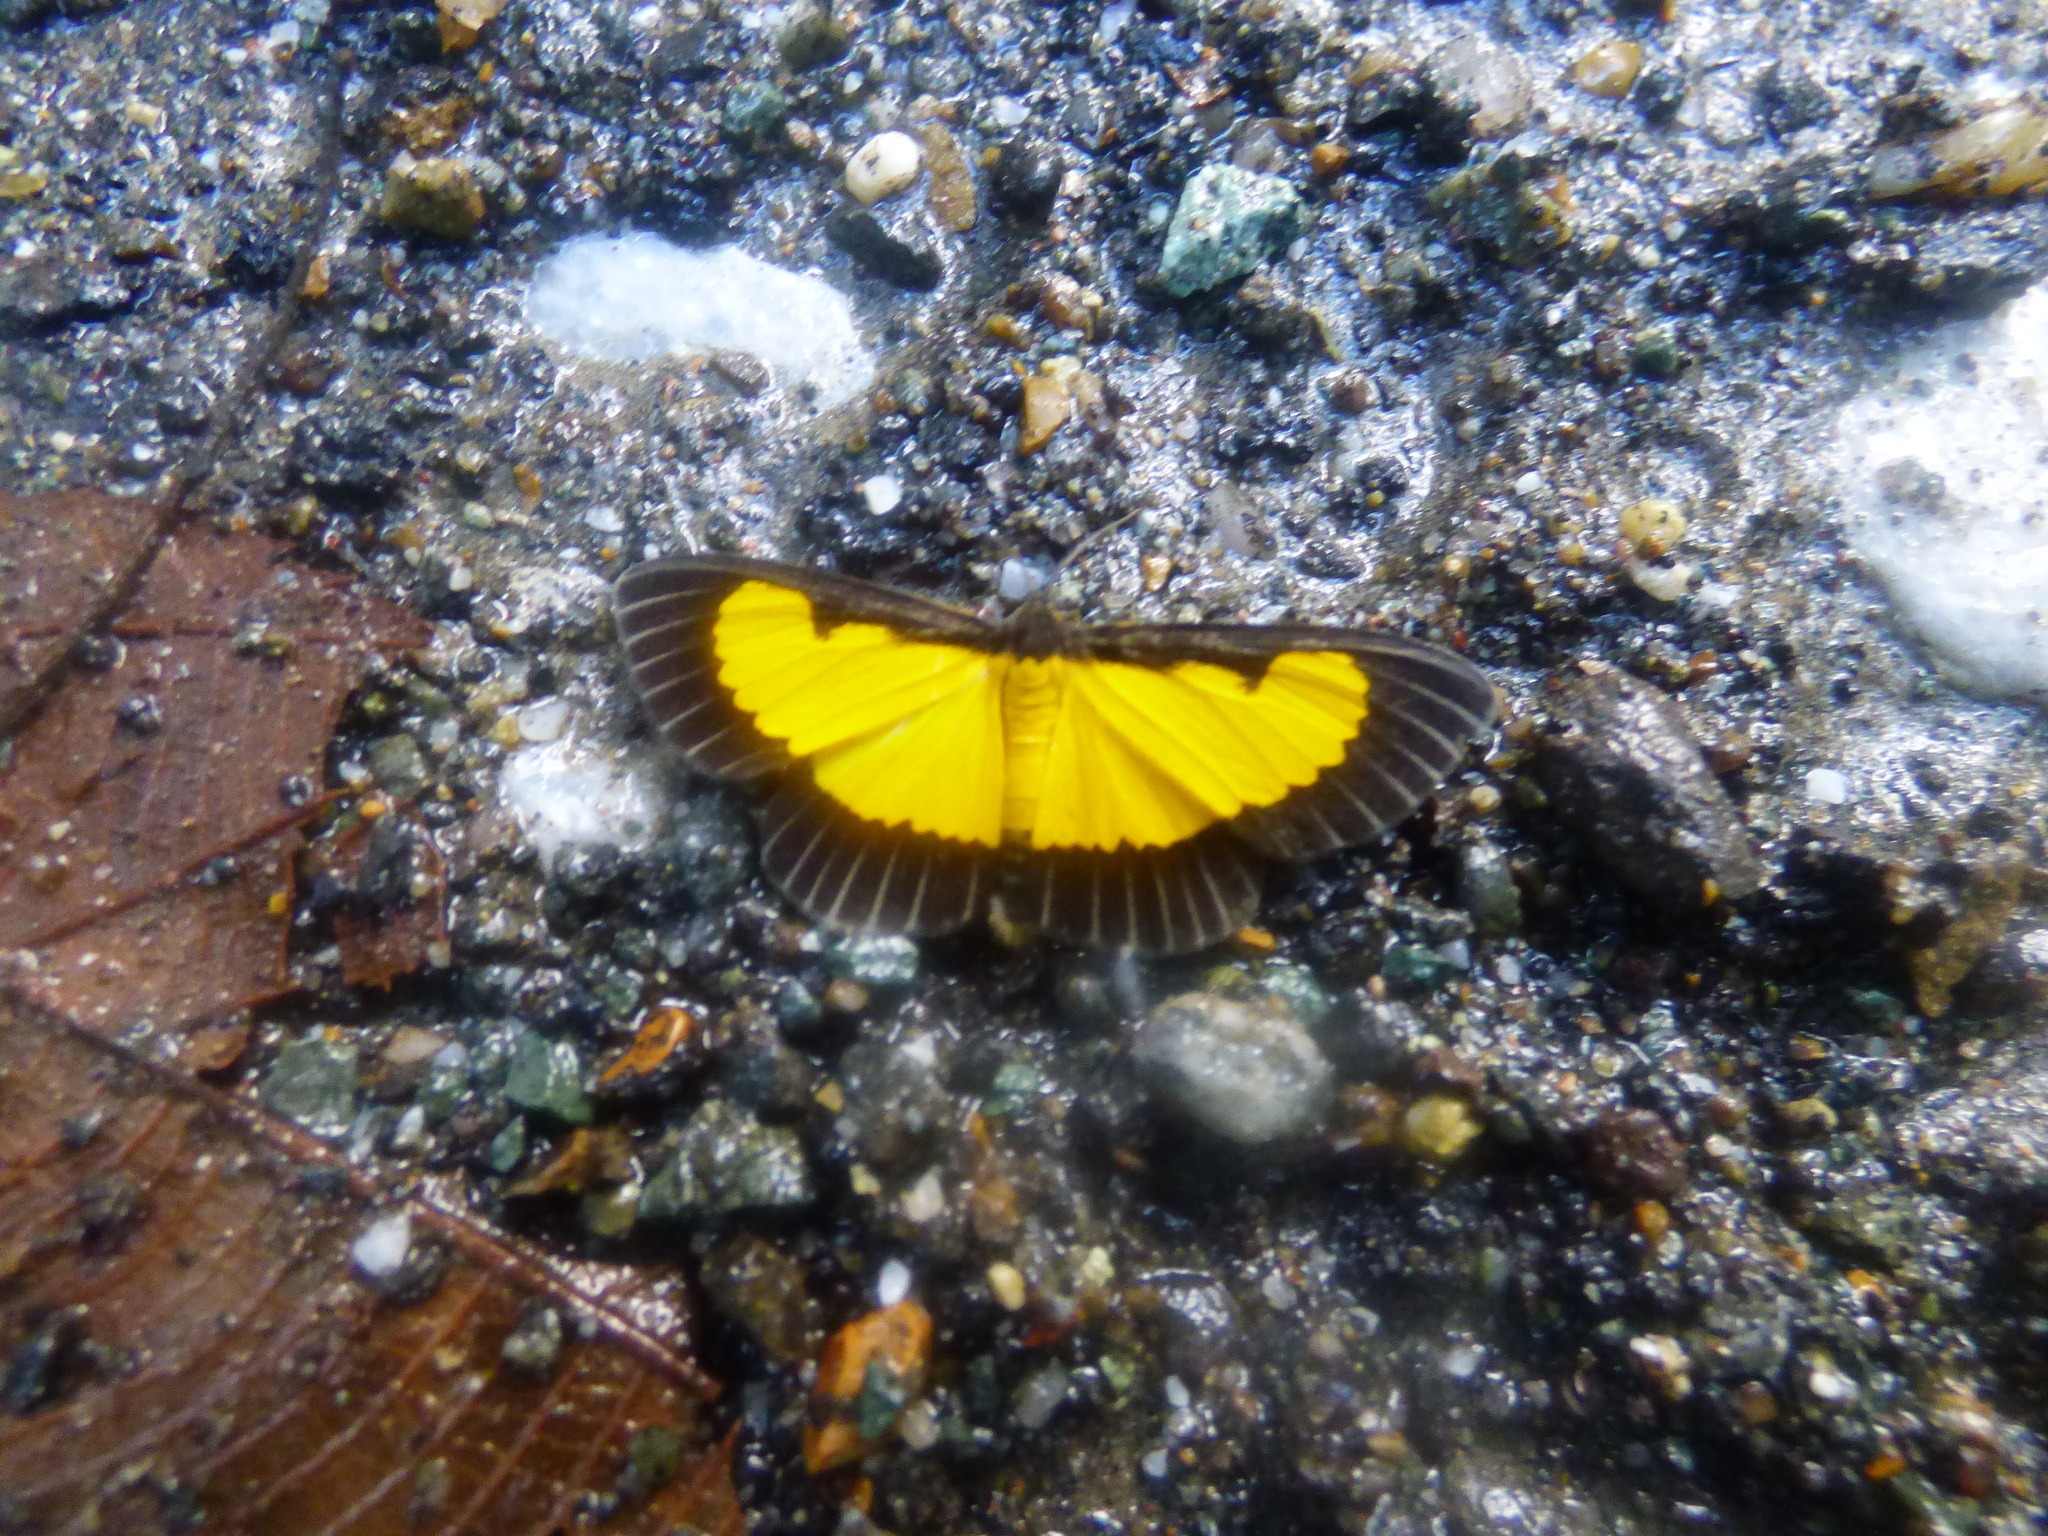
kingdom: Animalia
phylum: Arthropoda
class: Insecta
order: Lepidoptera
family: Geometridae
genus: Xanthyris
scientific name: Xanthyris flaveolata
